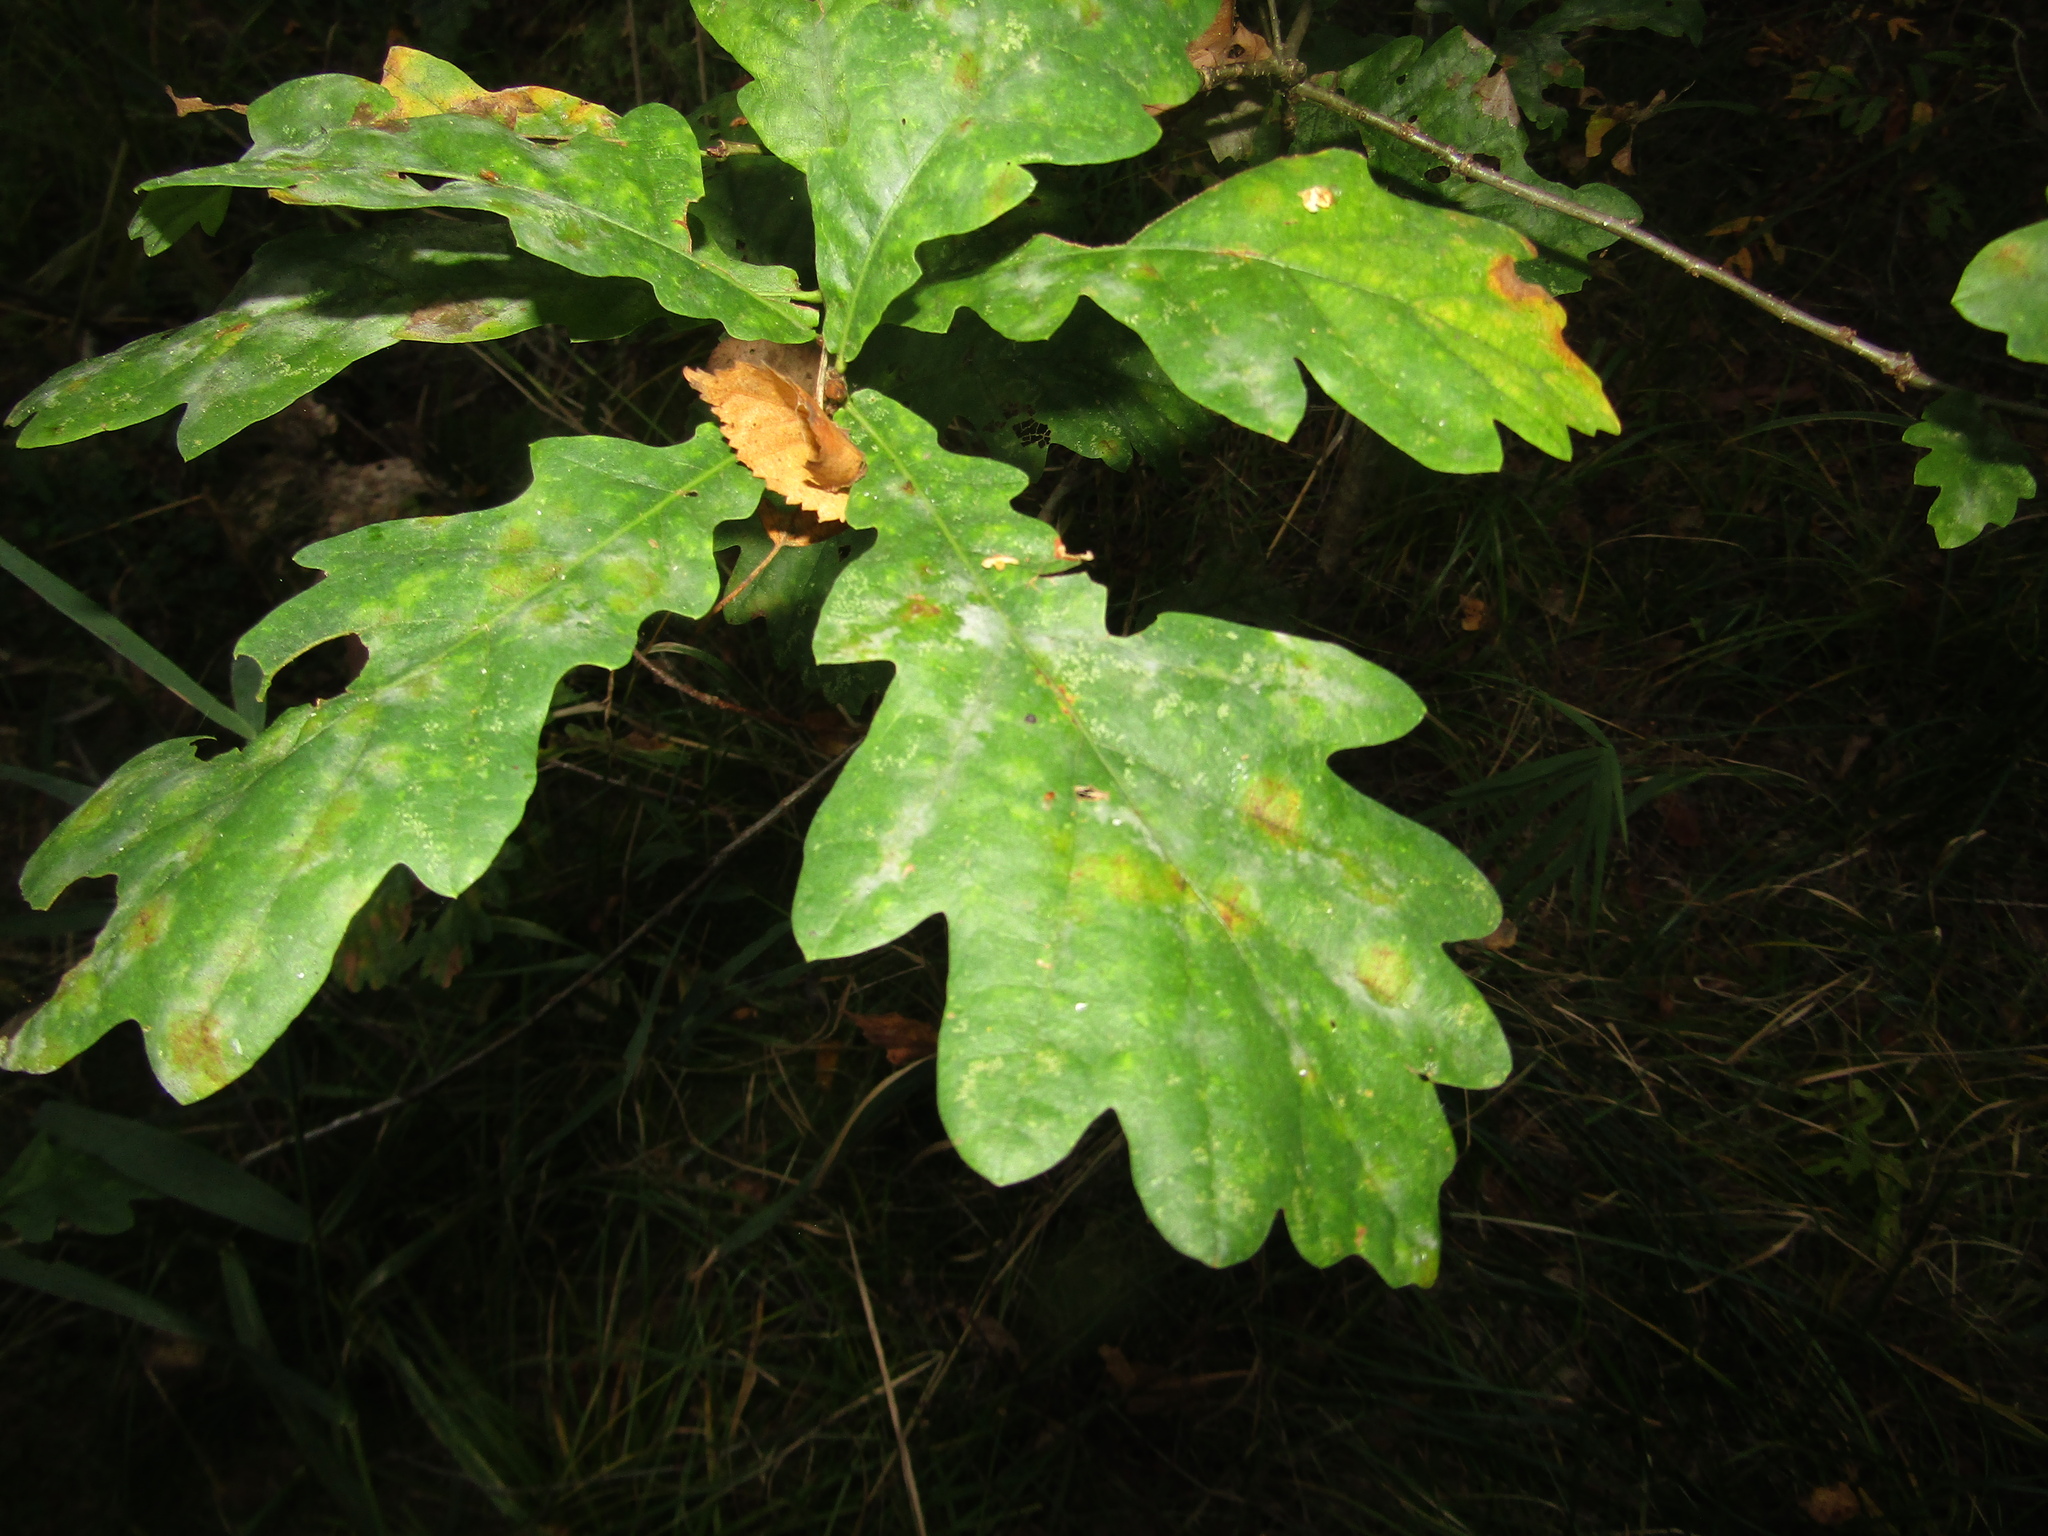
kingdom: Plantae
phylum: Tracheophyta
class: Magnoliopsida
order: Fagales
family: Fagaceae
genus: Quercus
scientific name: Quercus robur
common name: Pedunculate oak
